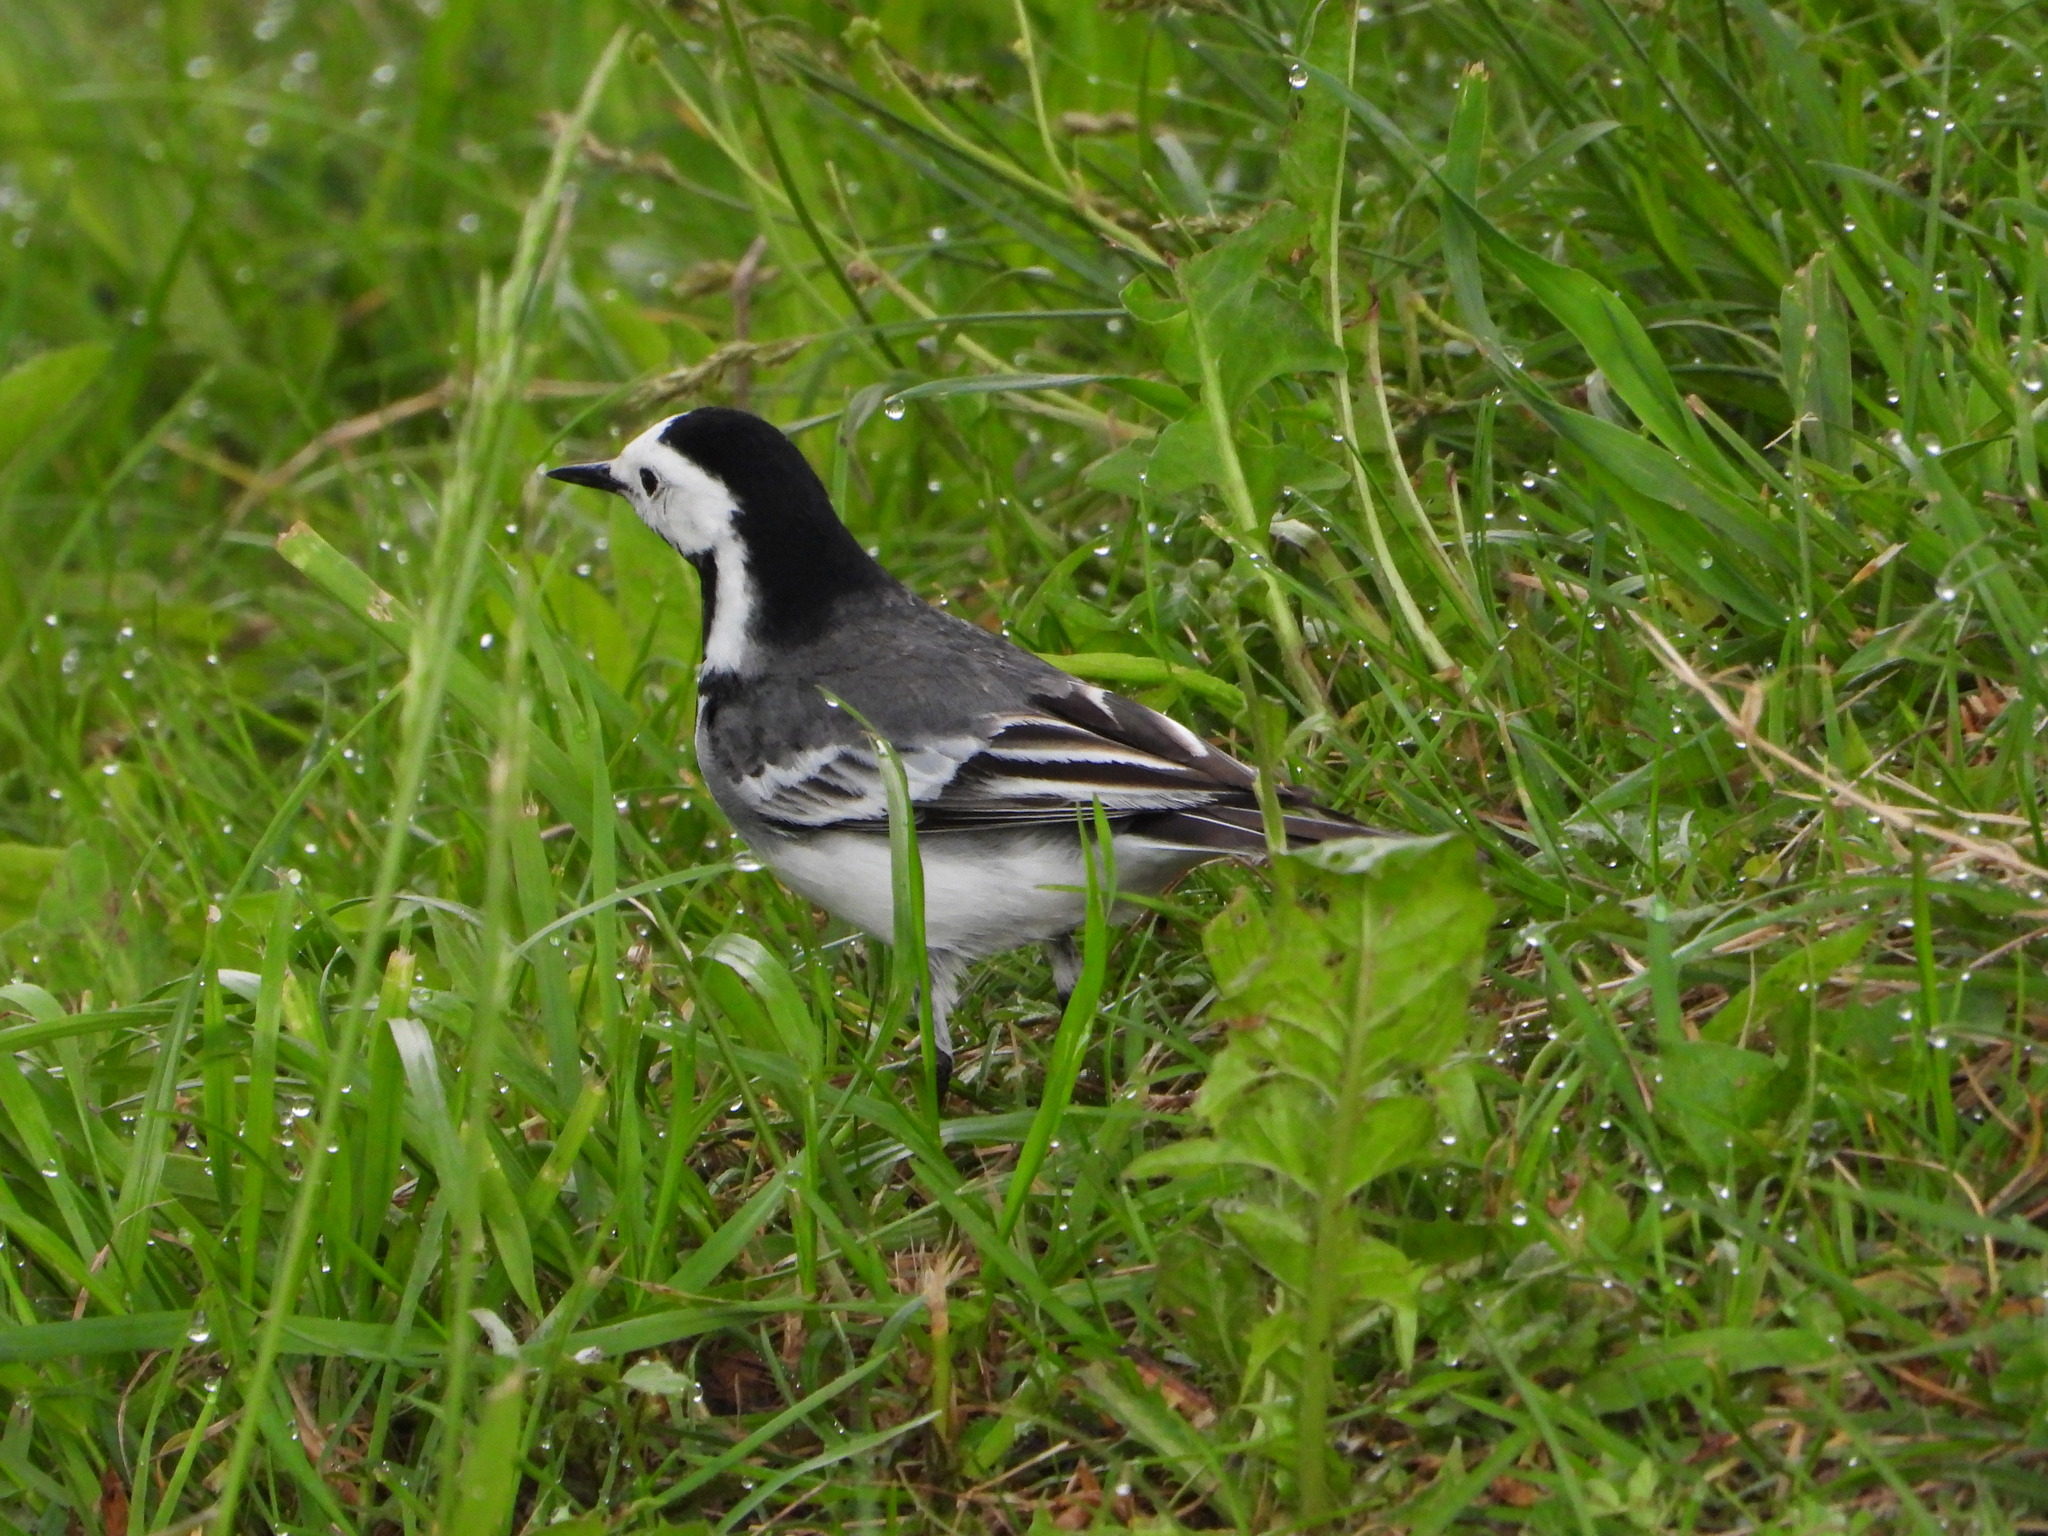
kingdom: Animalia
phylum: Chordata
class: Aves
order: Passeriformes
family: Motacillidae
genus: Motacilla
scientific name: Motacilla alba
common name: White wagtail
